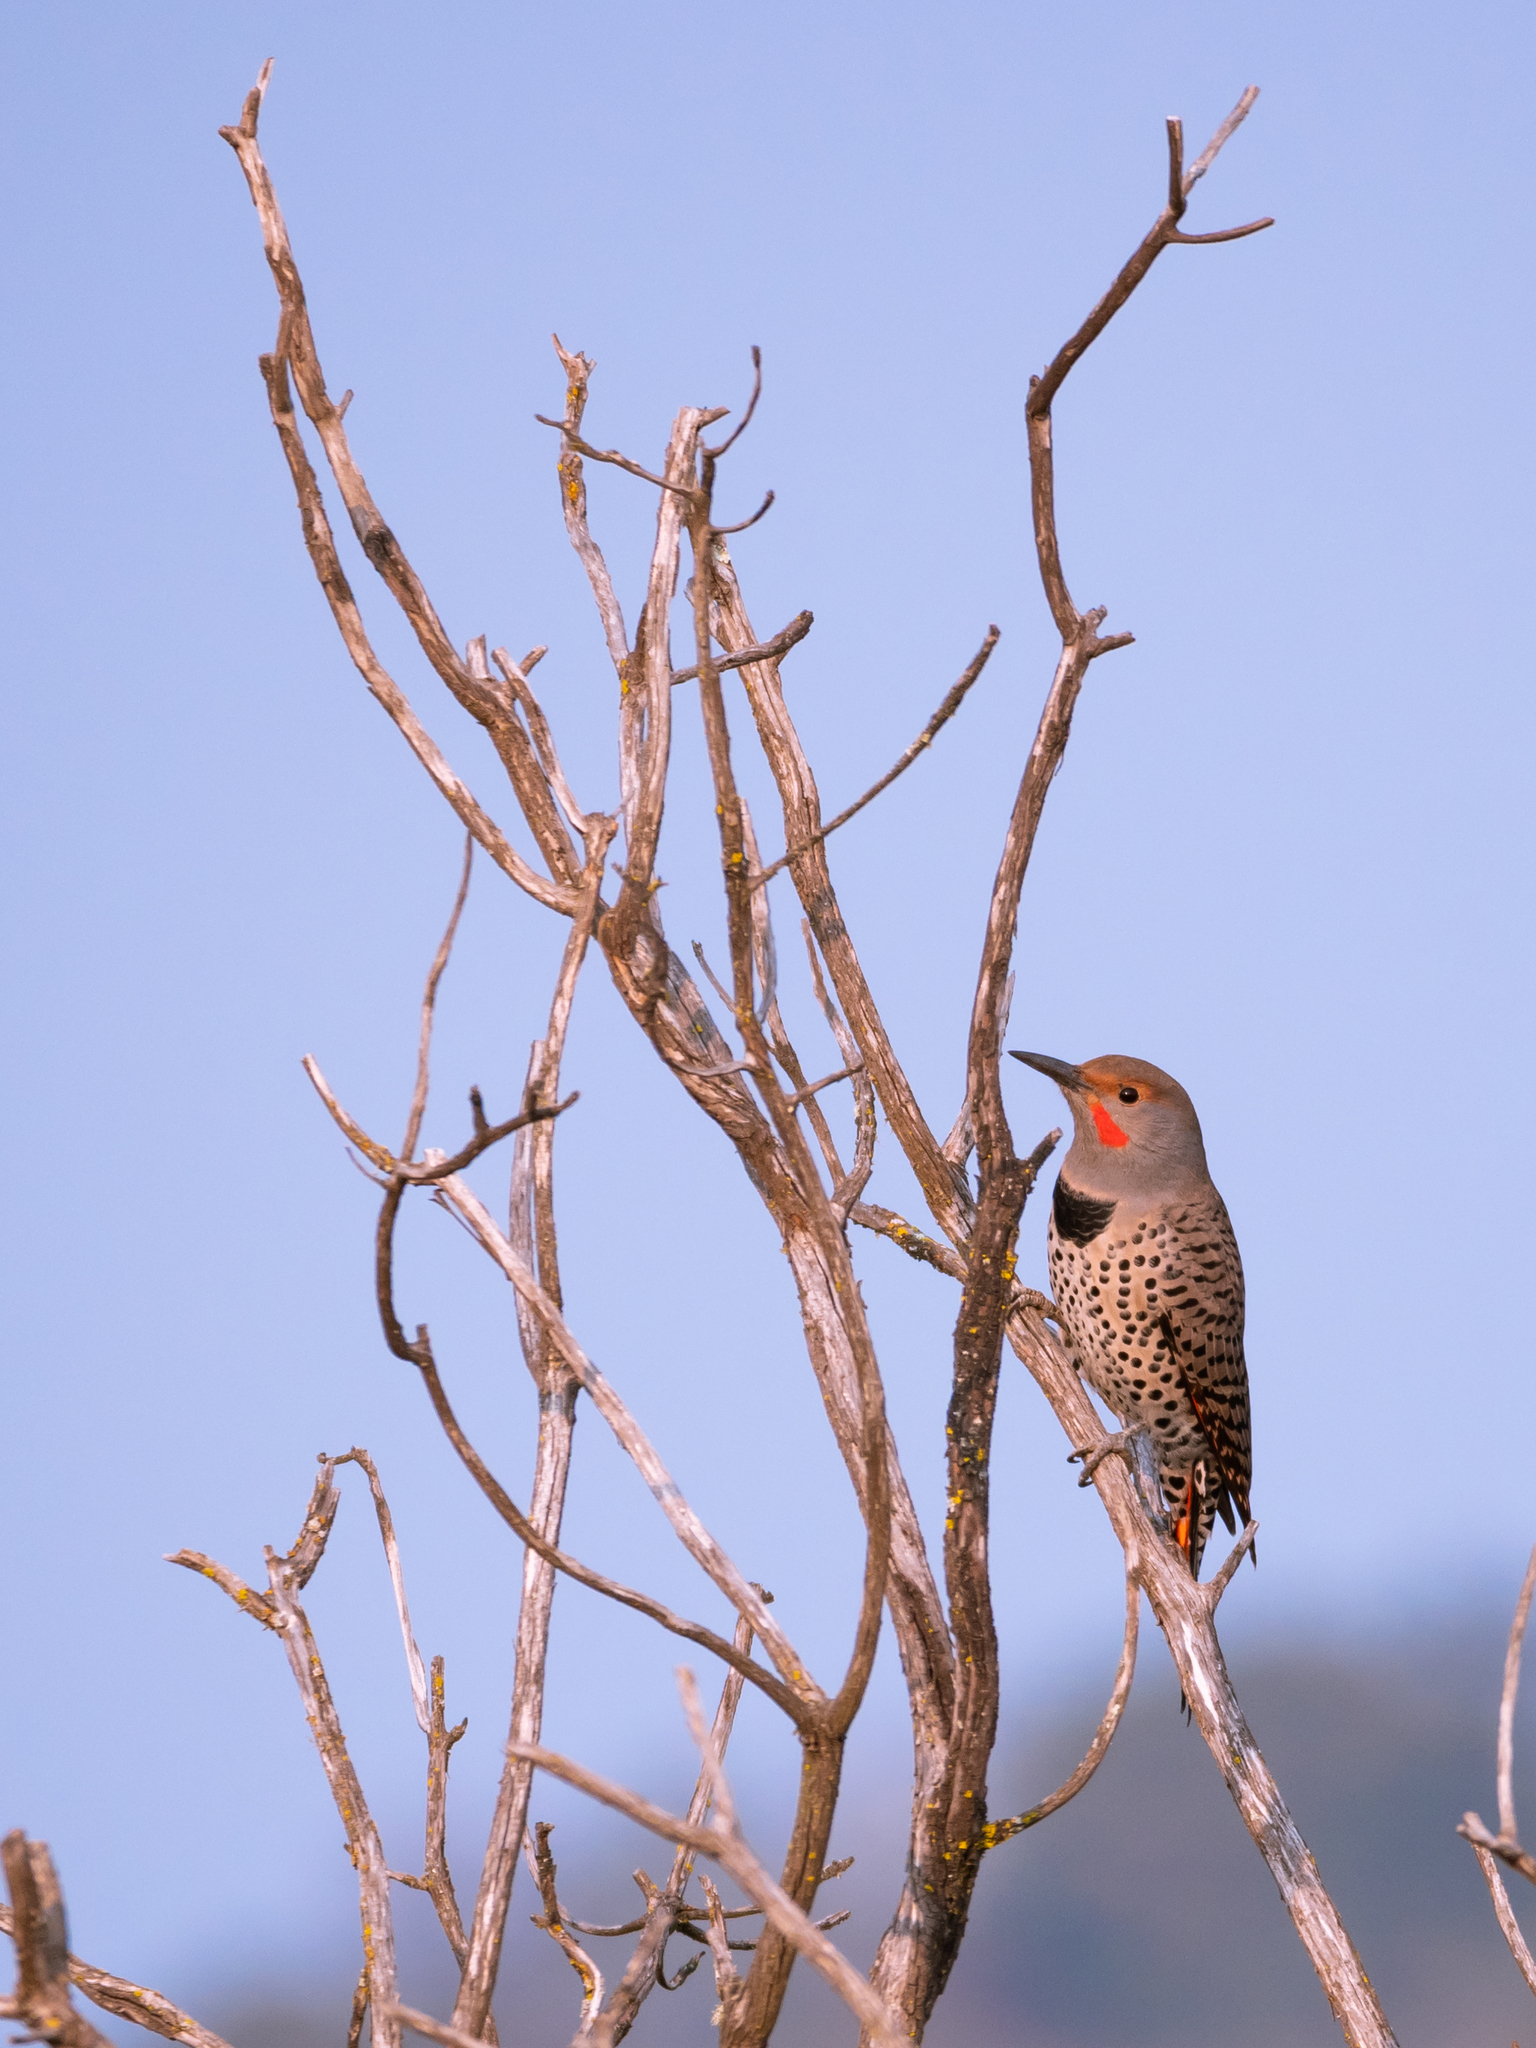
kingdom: Animalia
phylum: Chordata
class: Aves
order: Piciformes
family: Picidae
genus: Colaptes
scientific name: Colaptes auratus
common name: Northern flicker
